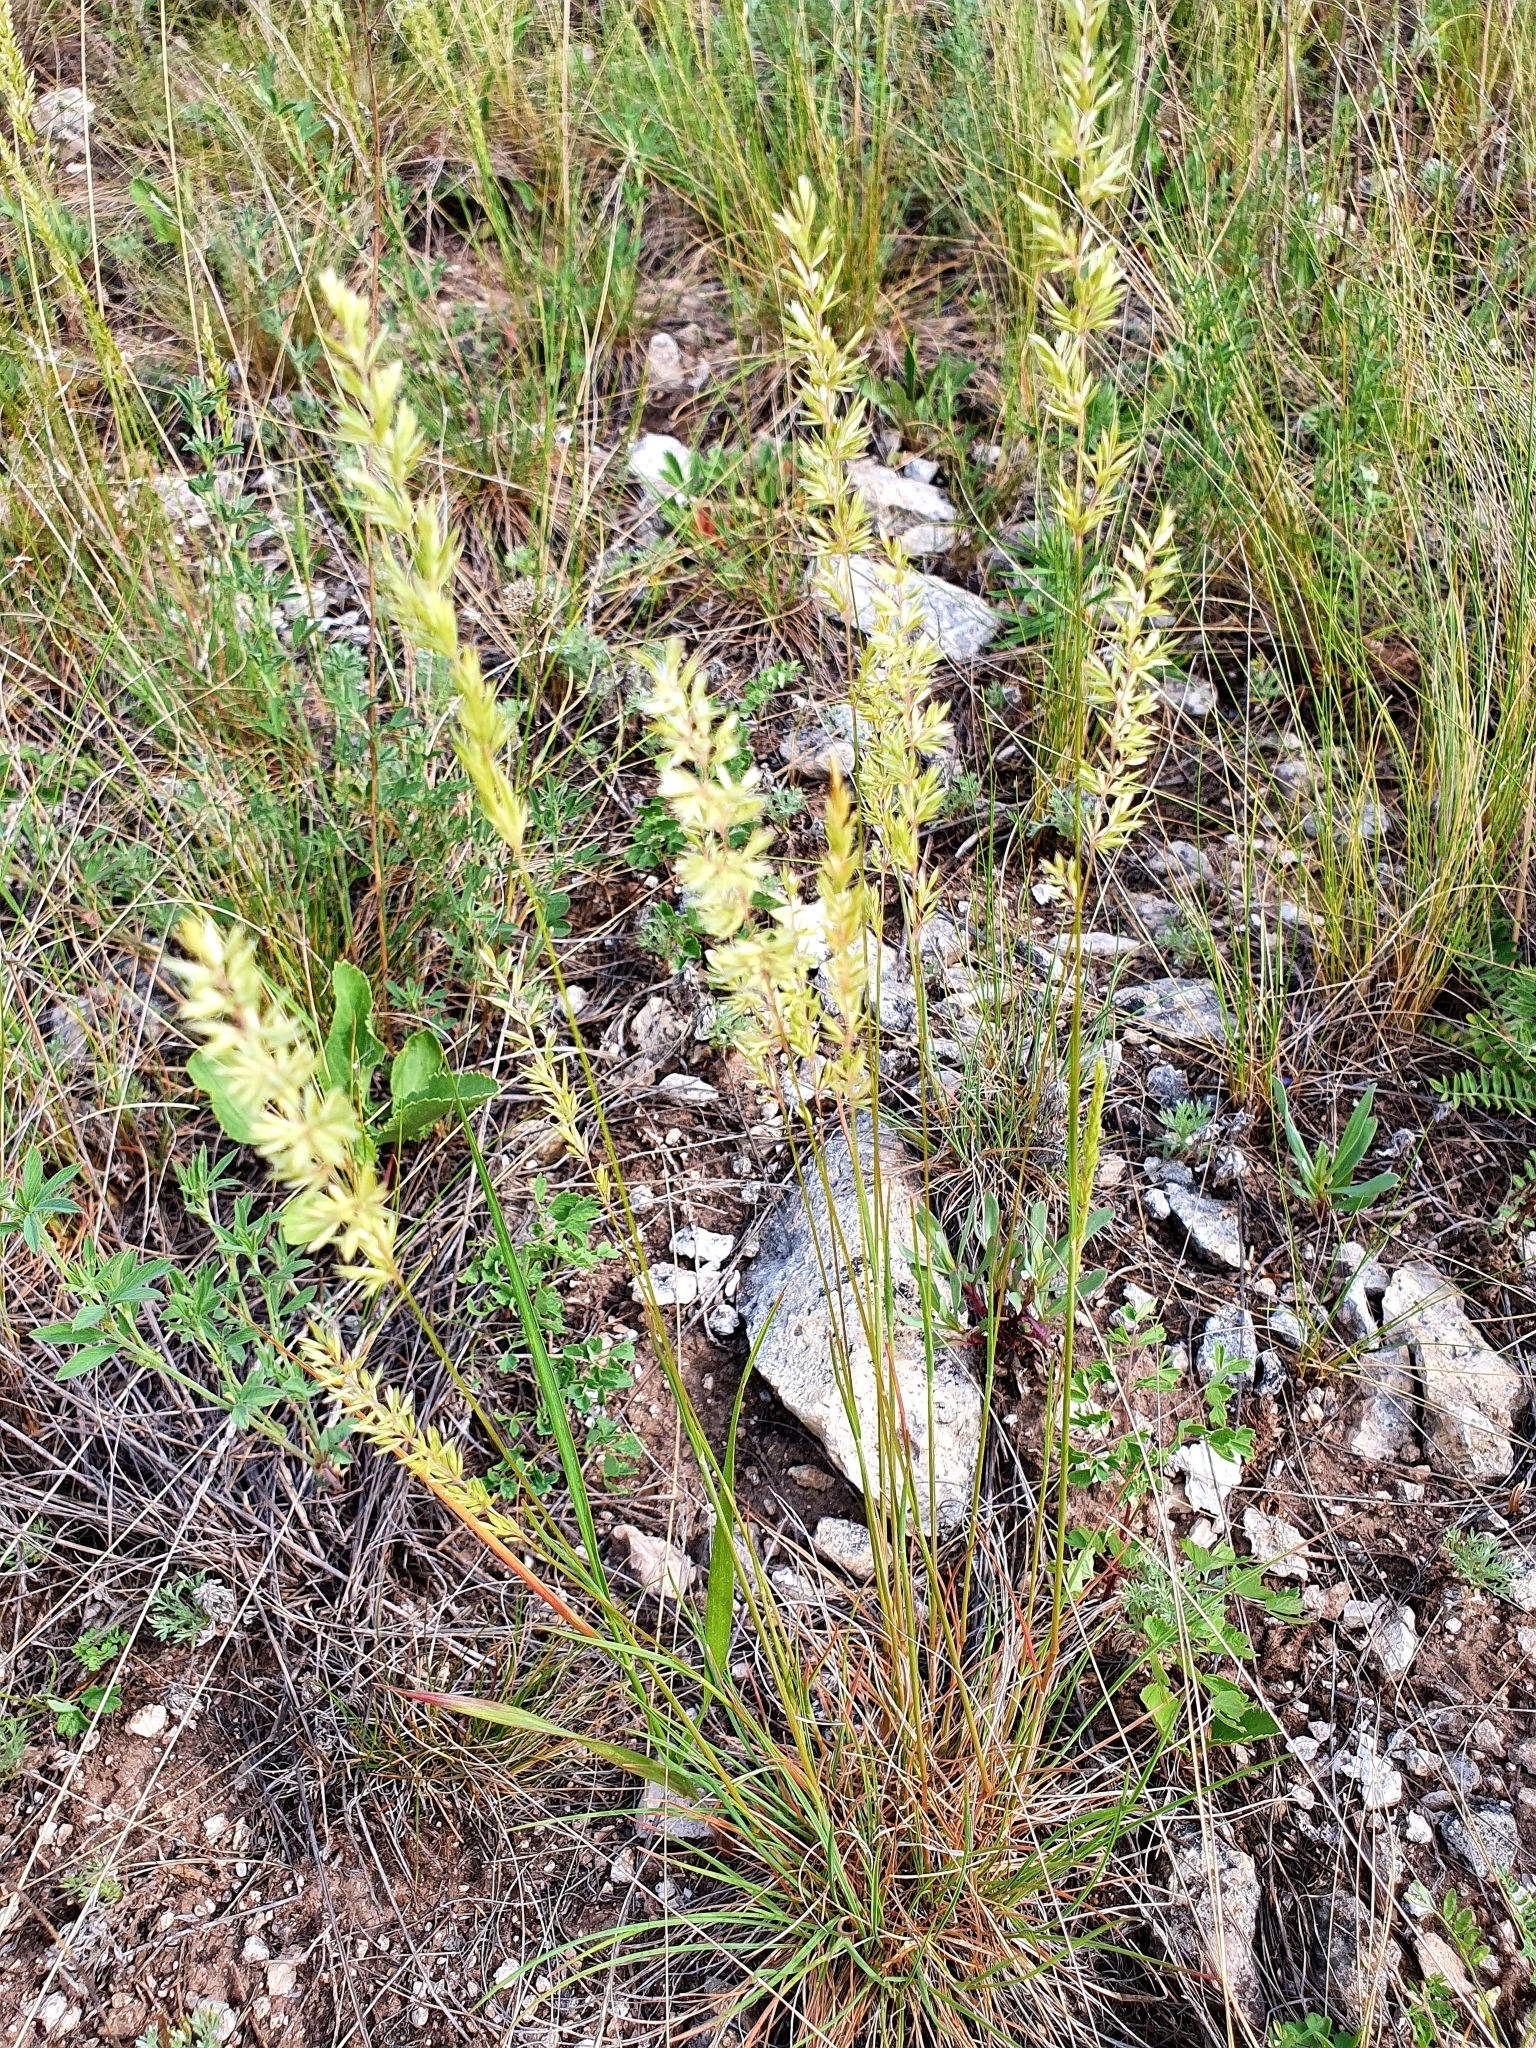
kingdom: Plantae
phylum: Tracheophyta
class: Liliopsida
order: Poales
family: Poaceae
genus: Koeleria
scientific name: Koeleria macrantha
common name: Crested hair-grass
